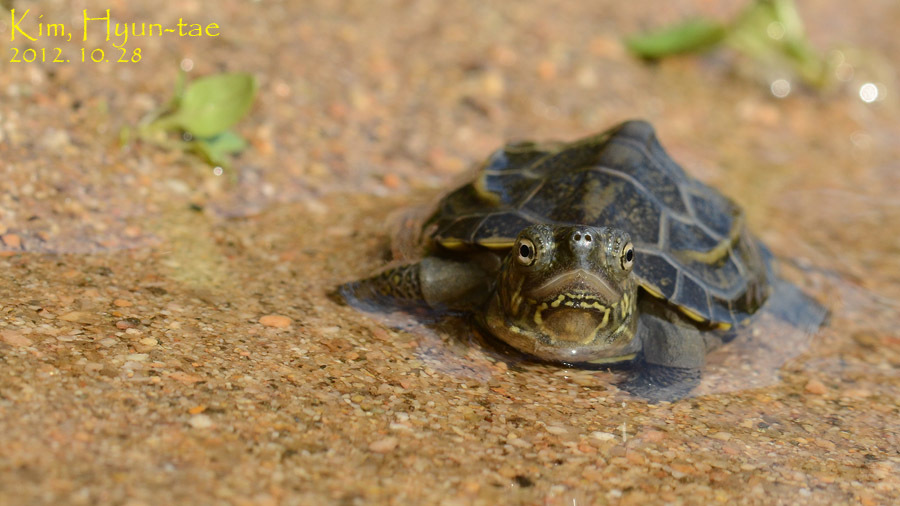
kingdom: Animalia
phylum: Chordata
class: Testudines
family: Geoemydidae
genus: Mauremys
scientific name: Mauremys reevesii
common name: Chinese pond turtle
